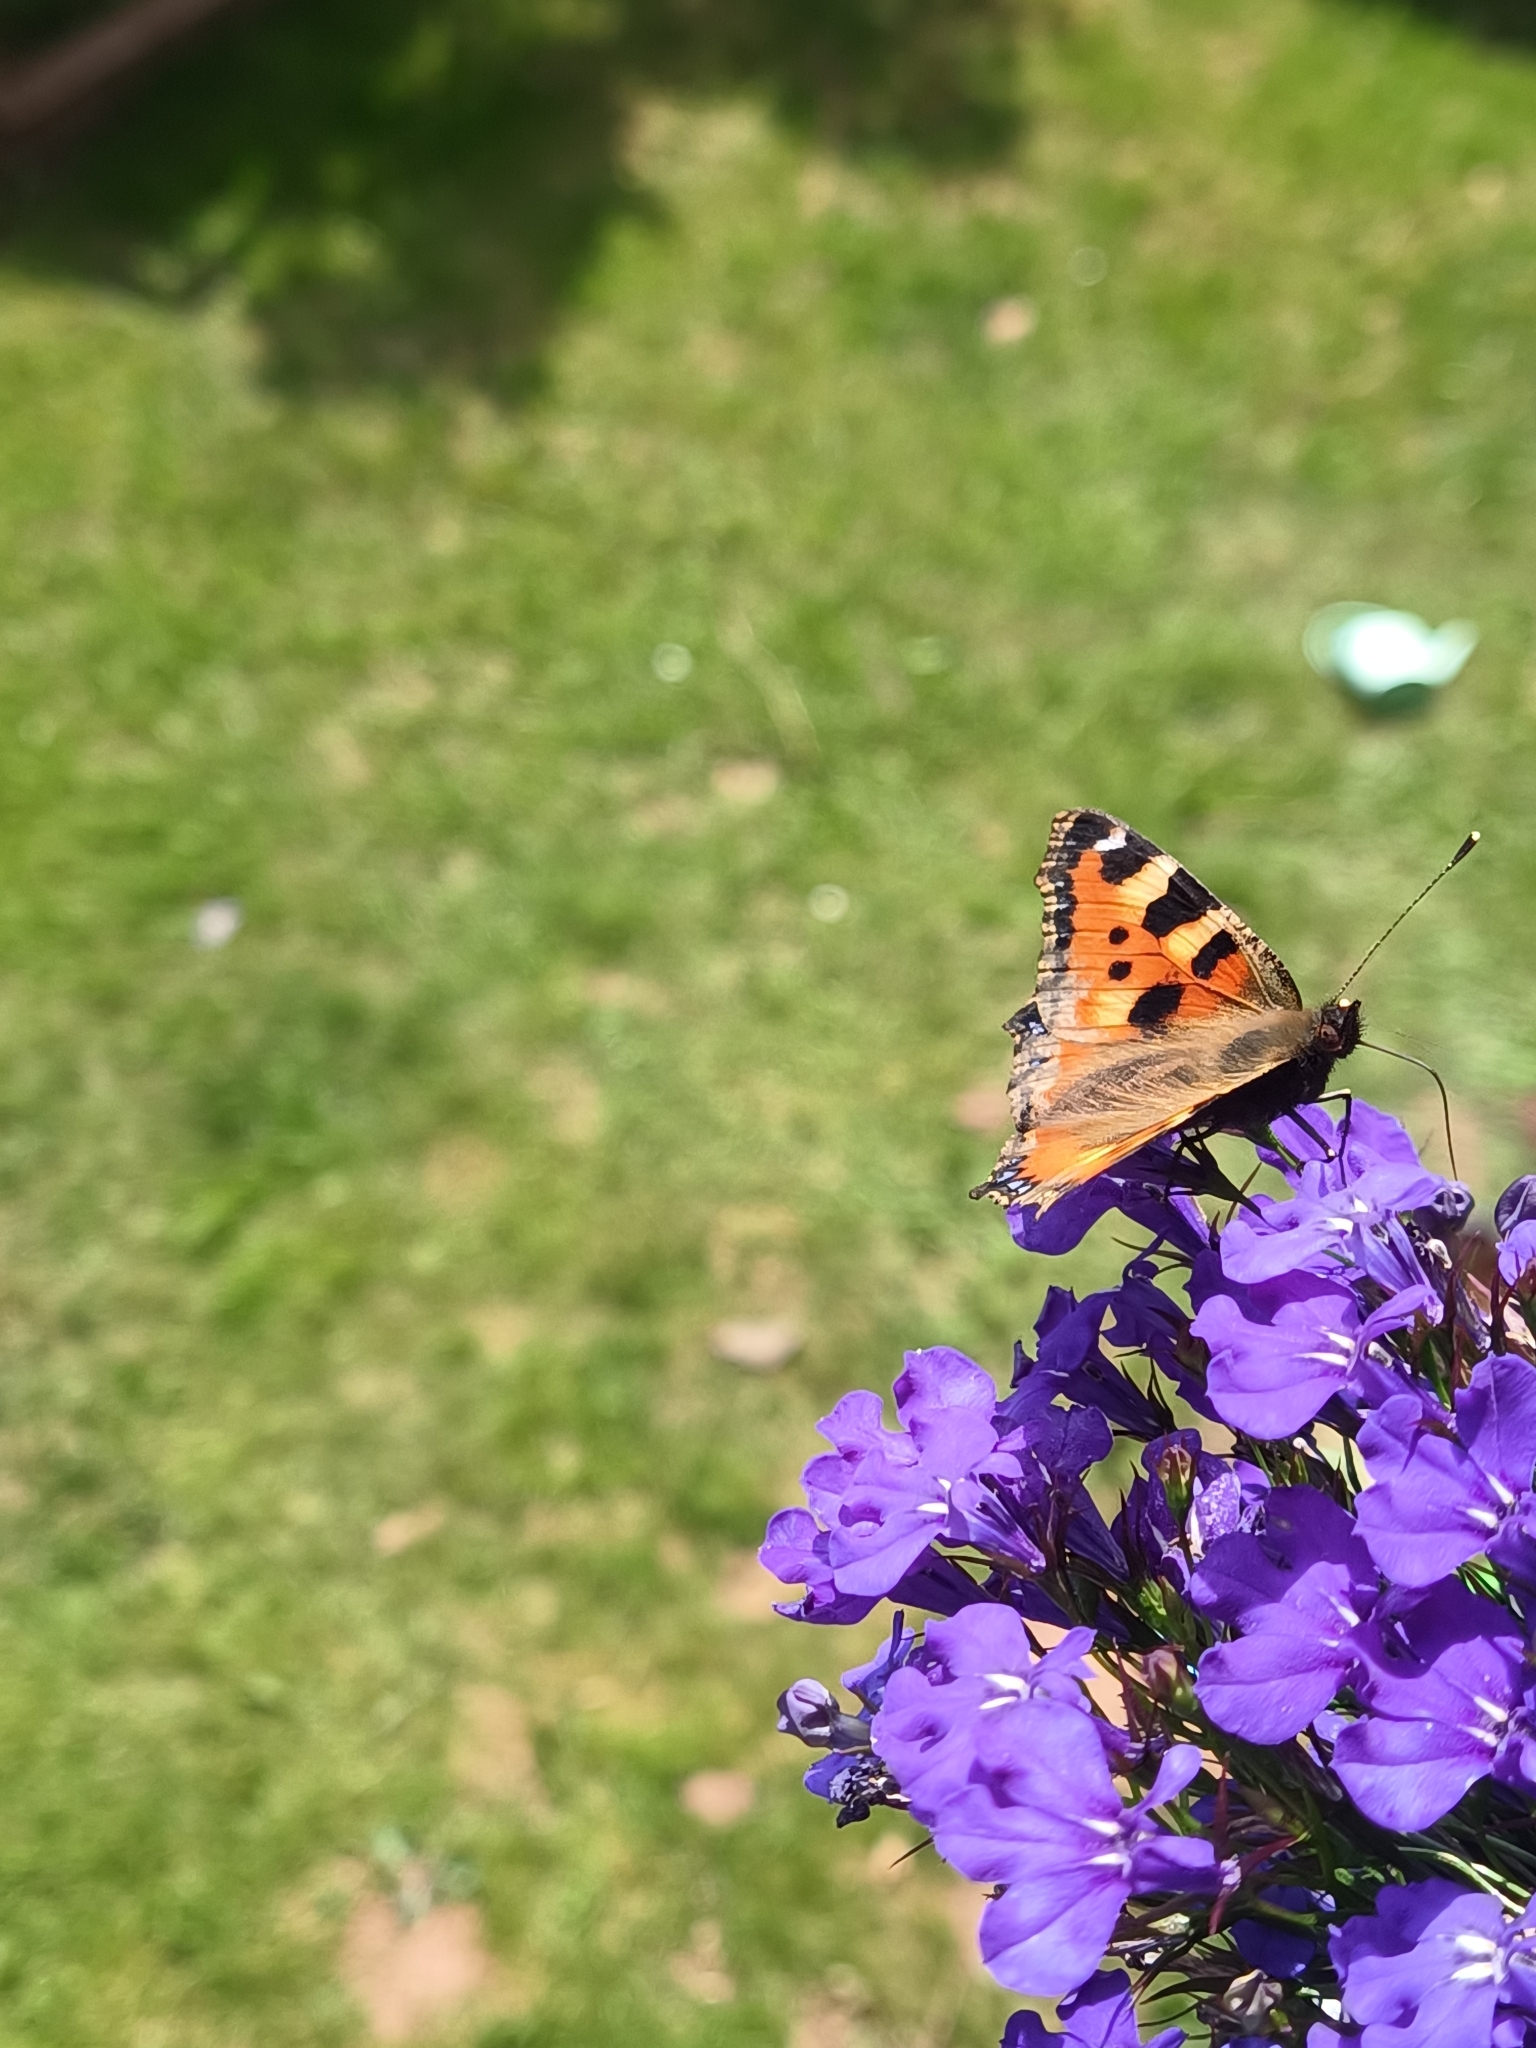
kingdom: Animalia
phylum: Arthropoda
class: Insecta
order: Lepidoptera
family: Nymphalidae
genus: Aglais
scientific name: Aglais urticae
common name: Small tortoiseshell
